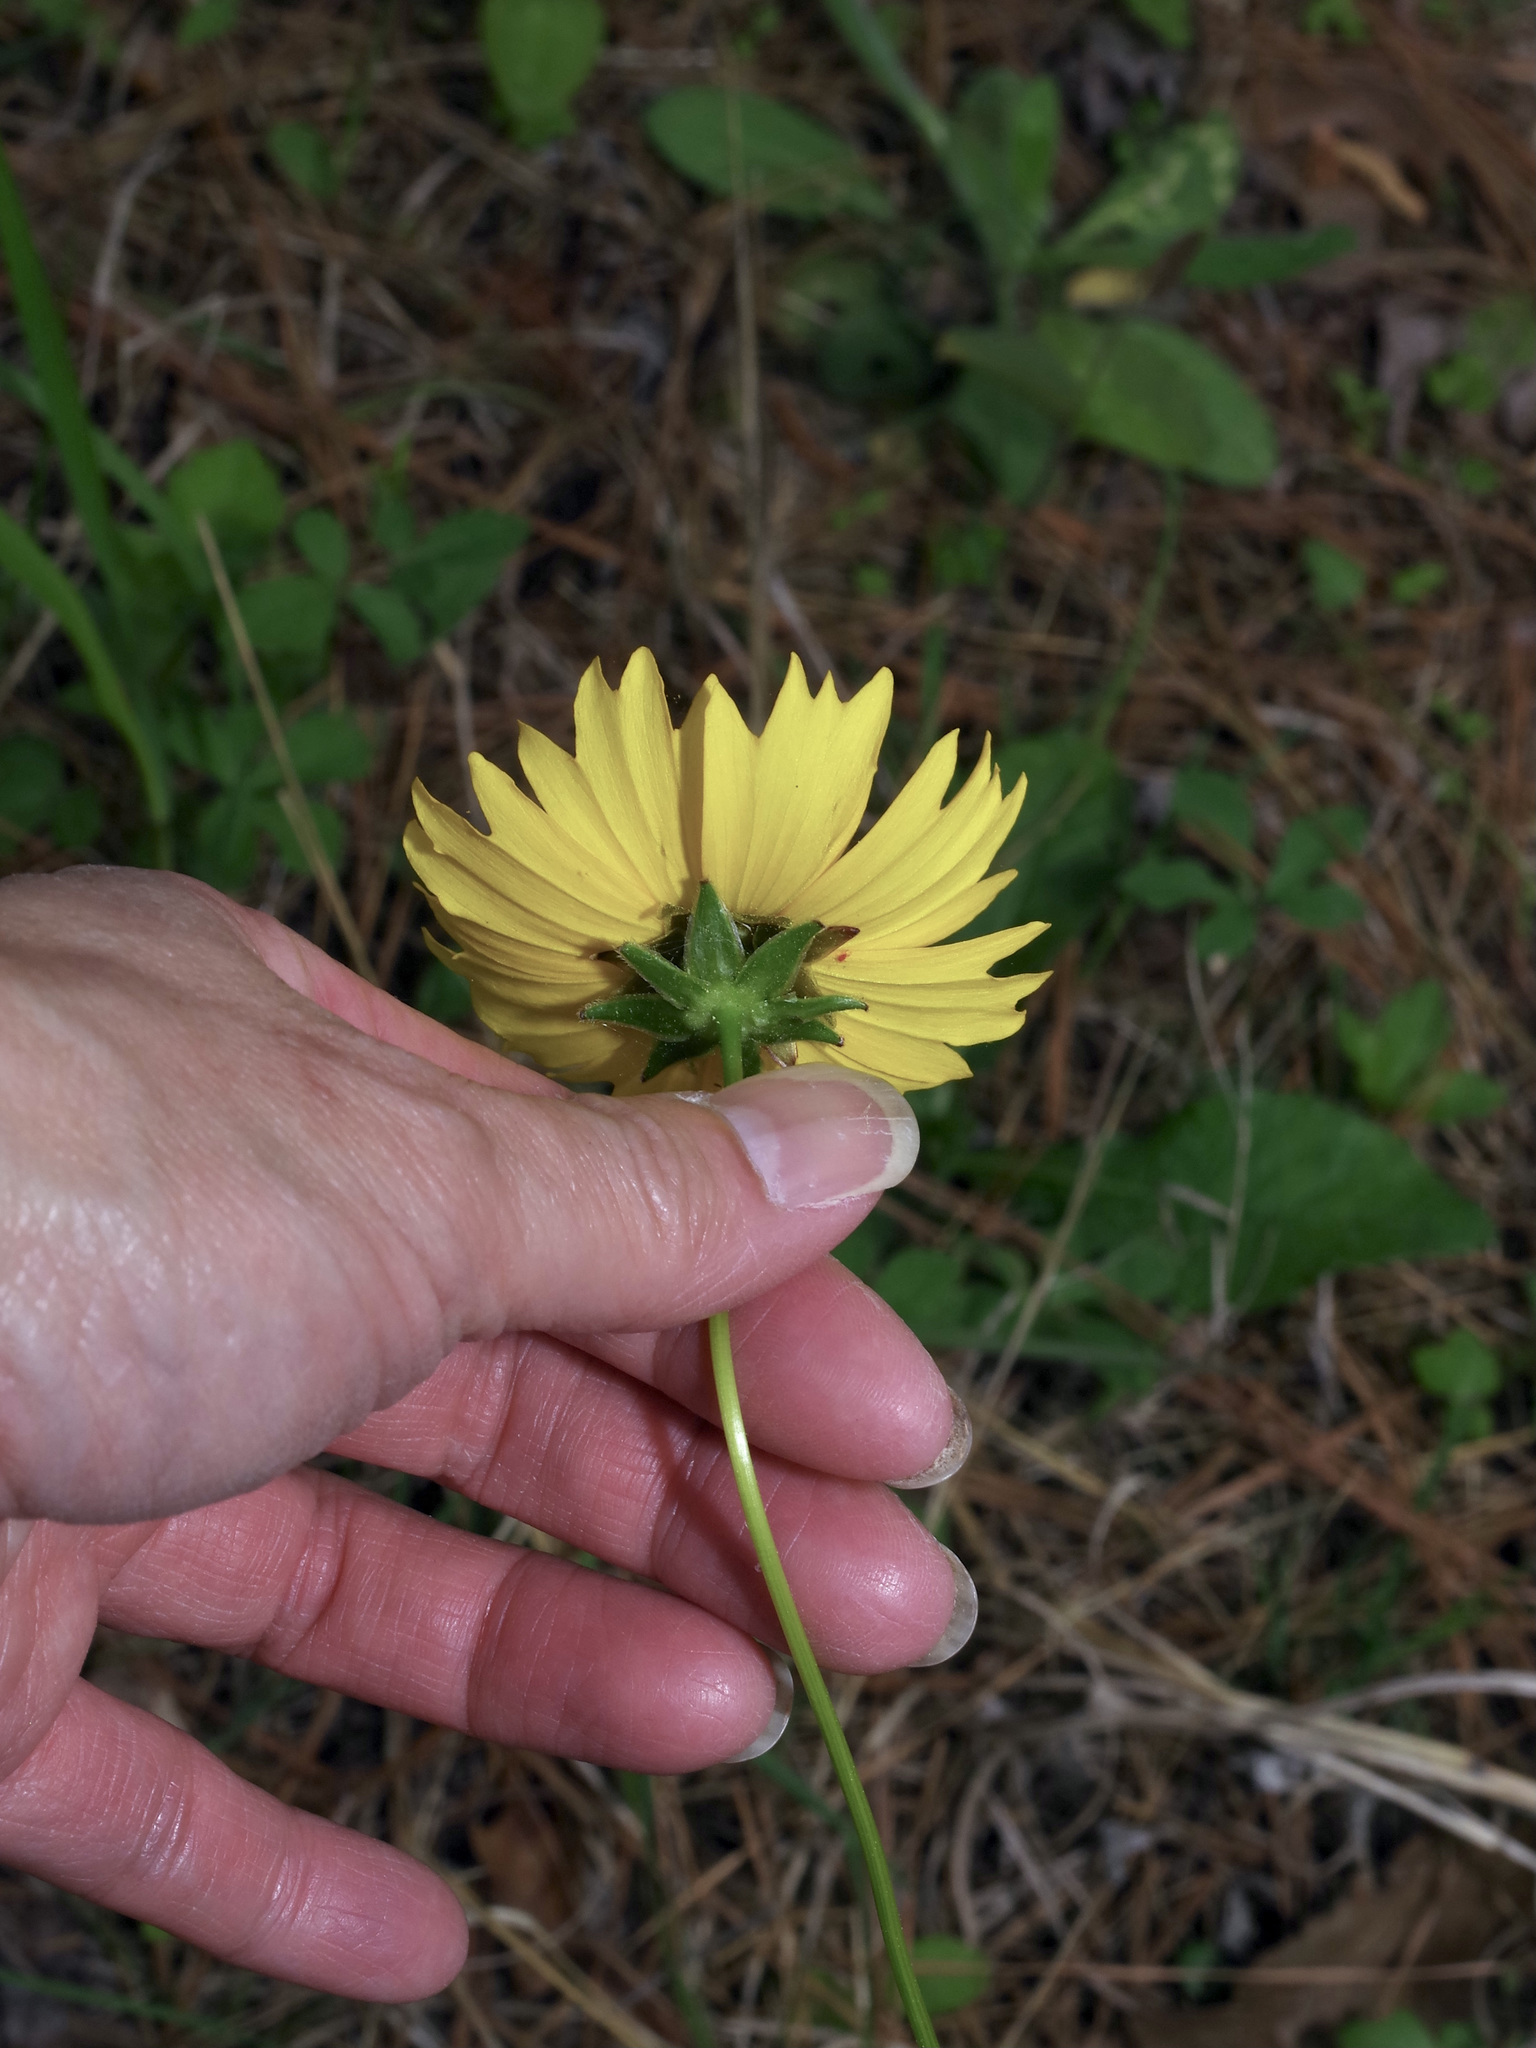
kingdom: Plantae
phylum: Tracheophyta
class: Magnoliopsida
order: Asterales
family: Asteraceae
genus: Coreopsis
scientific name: Coreopsis lanceolata
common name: Garden coreopsis
